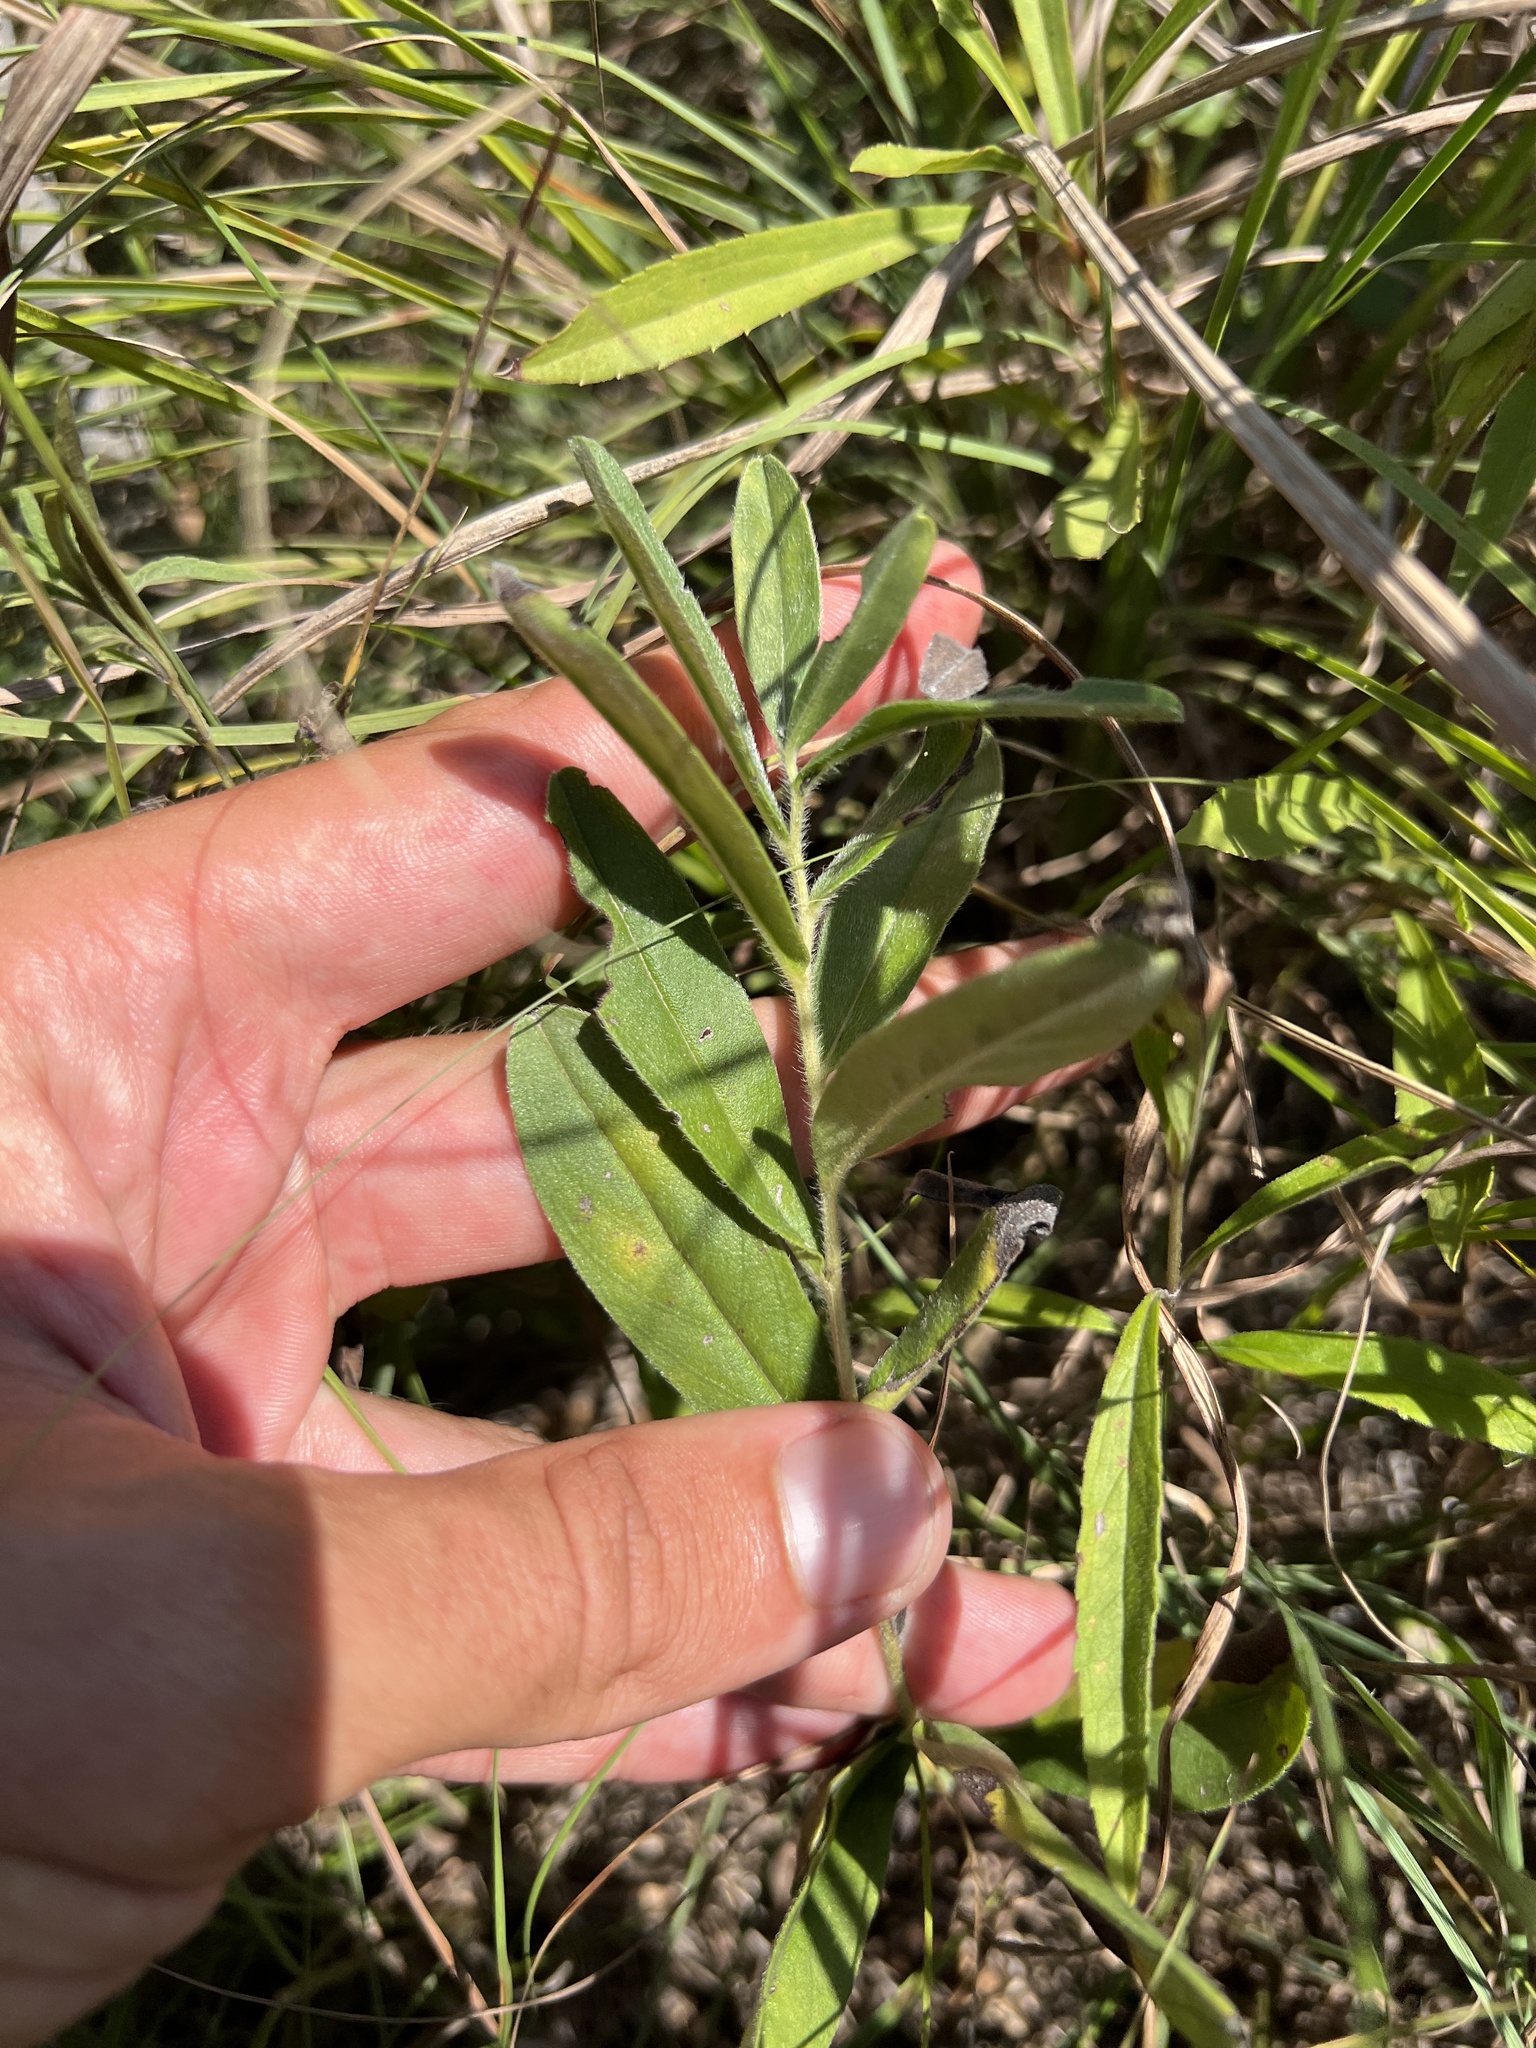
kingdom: Plantae
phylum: Tracheophyta
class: Magnoliopsida
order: Boraginales
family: Boraginaceae
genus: Lithospermum
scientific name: Lithospermum canescens
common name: Hoary puccoon
